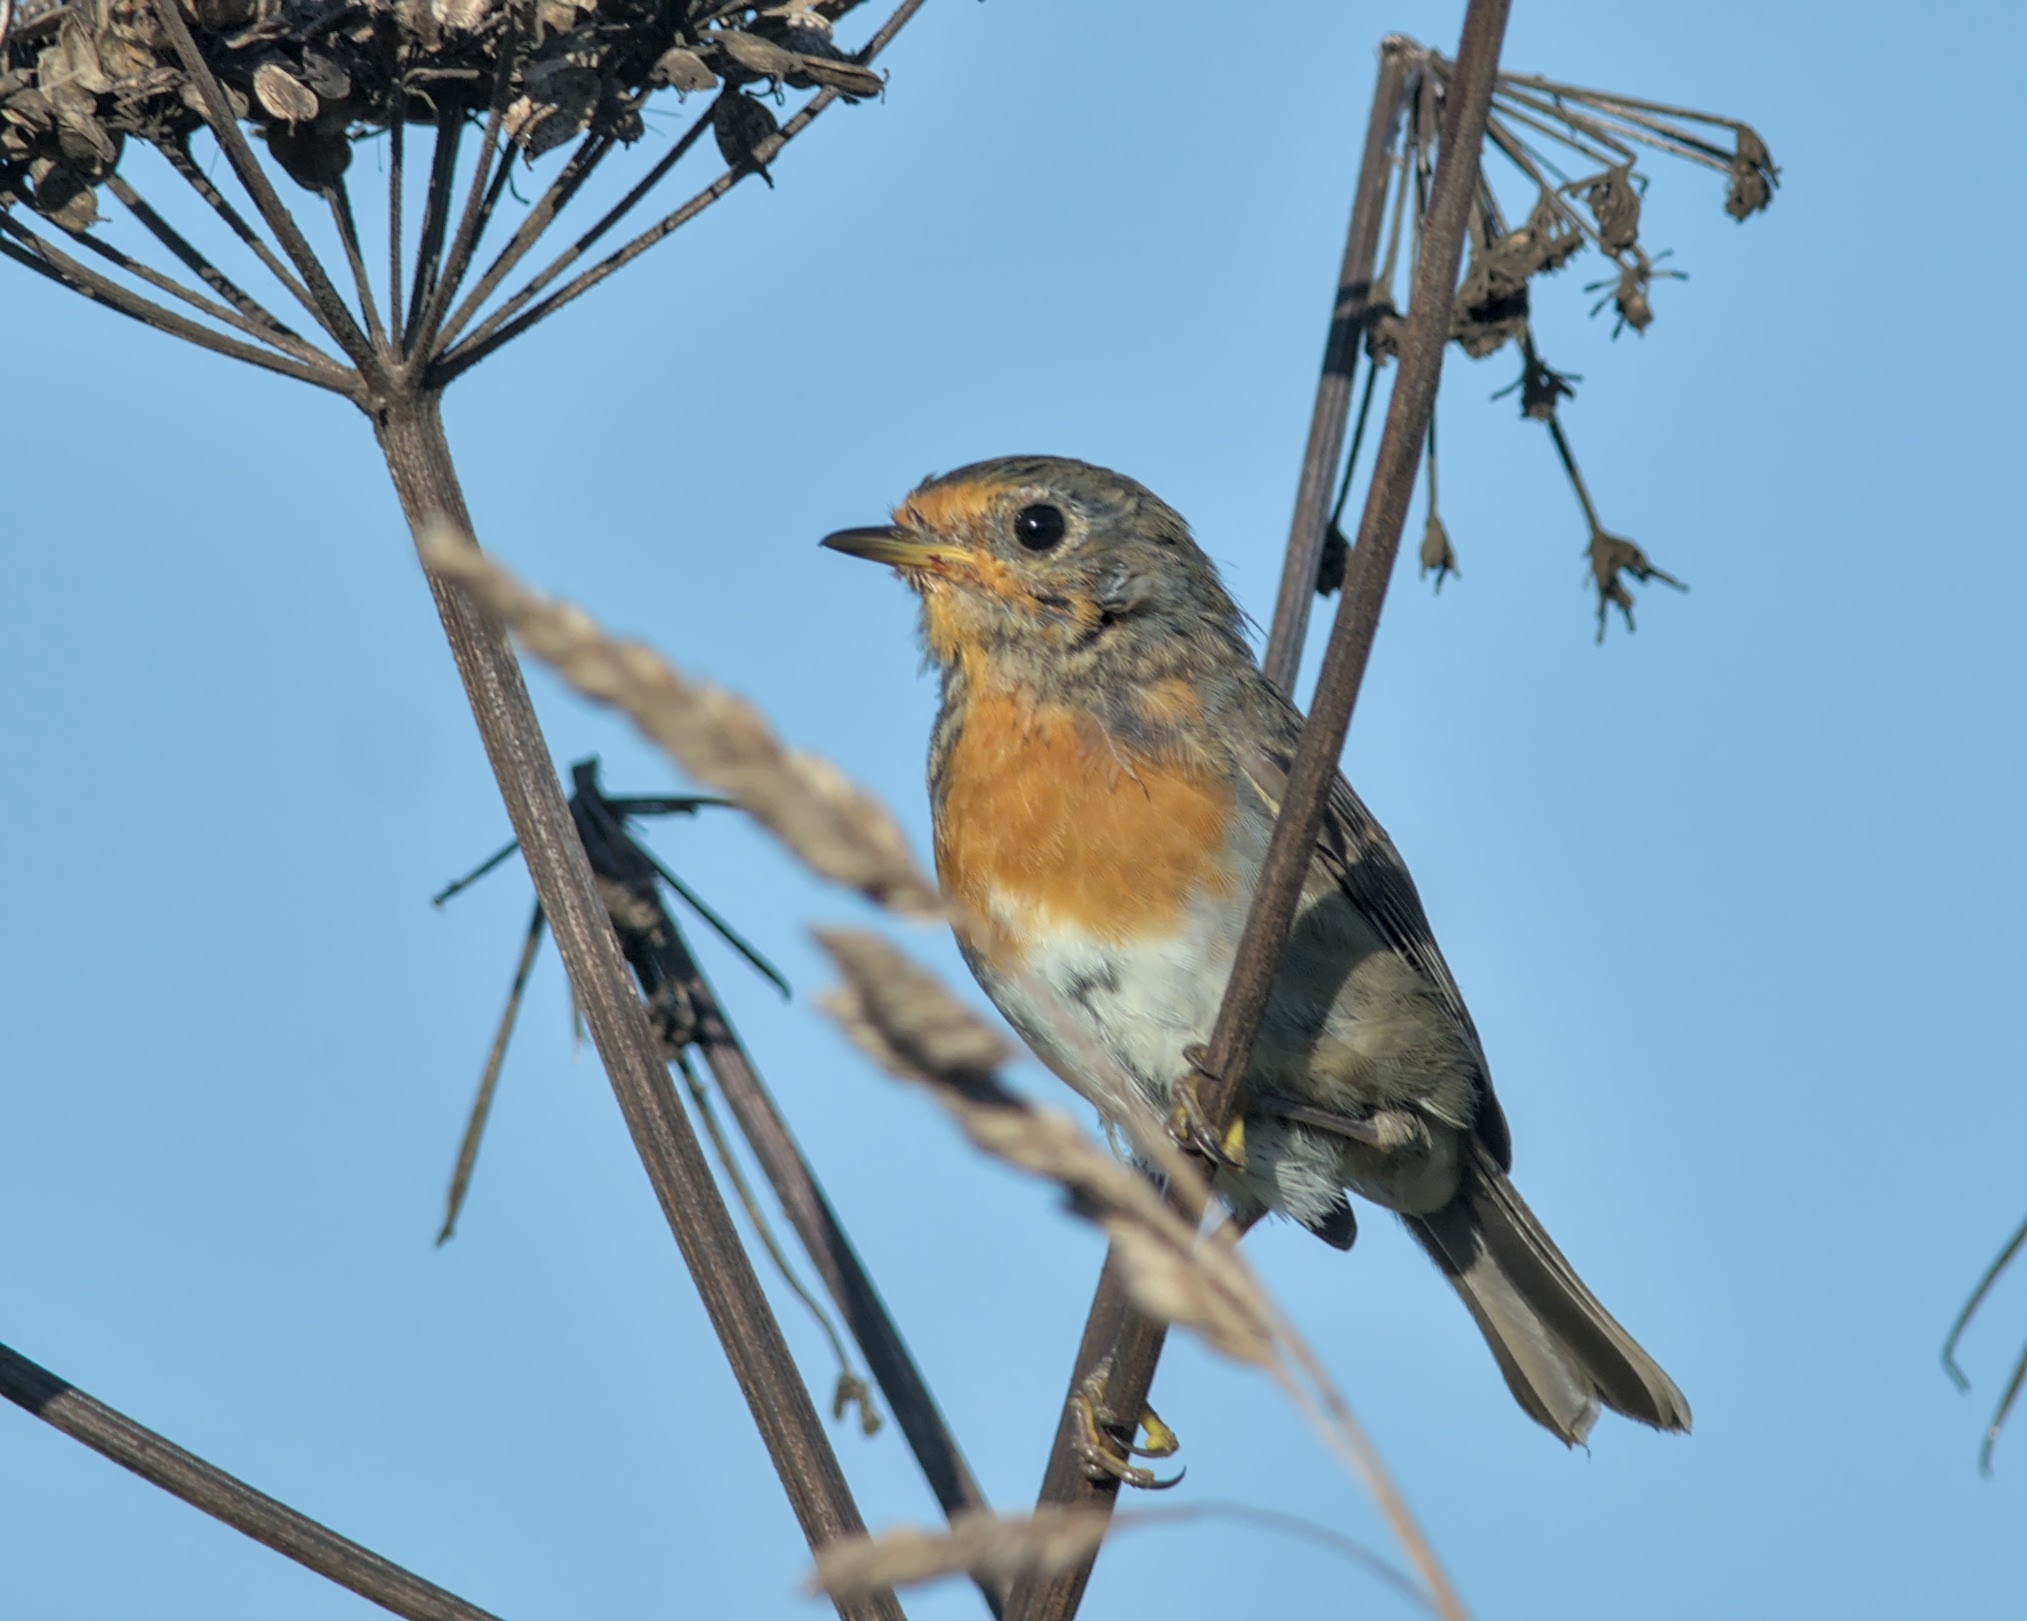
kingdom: Animalia
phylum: Chordata
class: Aves
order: Passeriformes
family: Muscicapidae
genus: Erithacus
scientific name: Erithacus rubecula
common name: European robin
